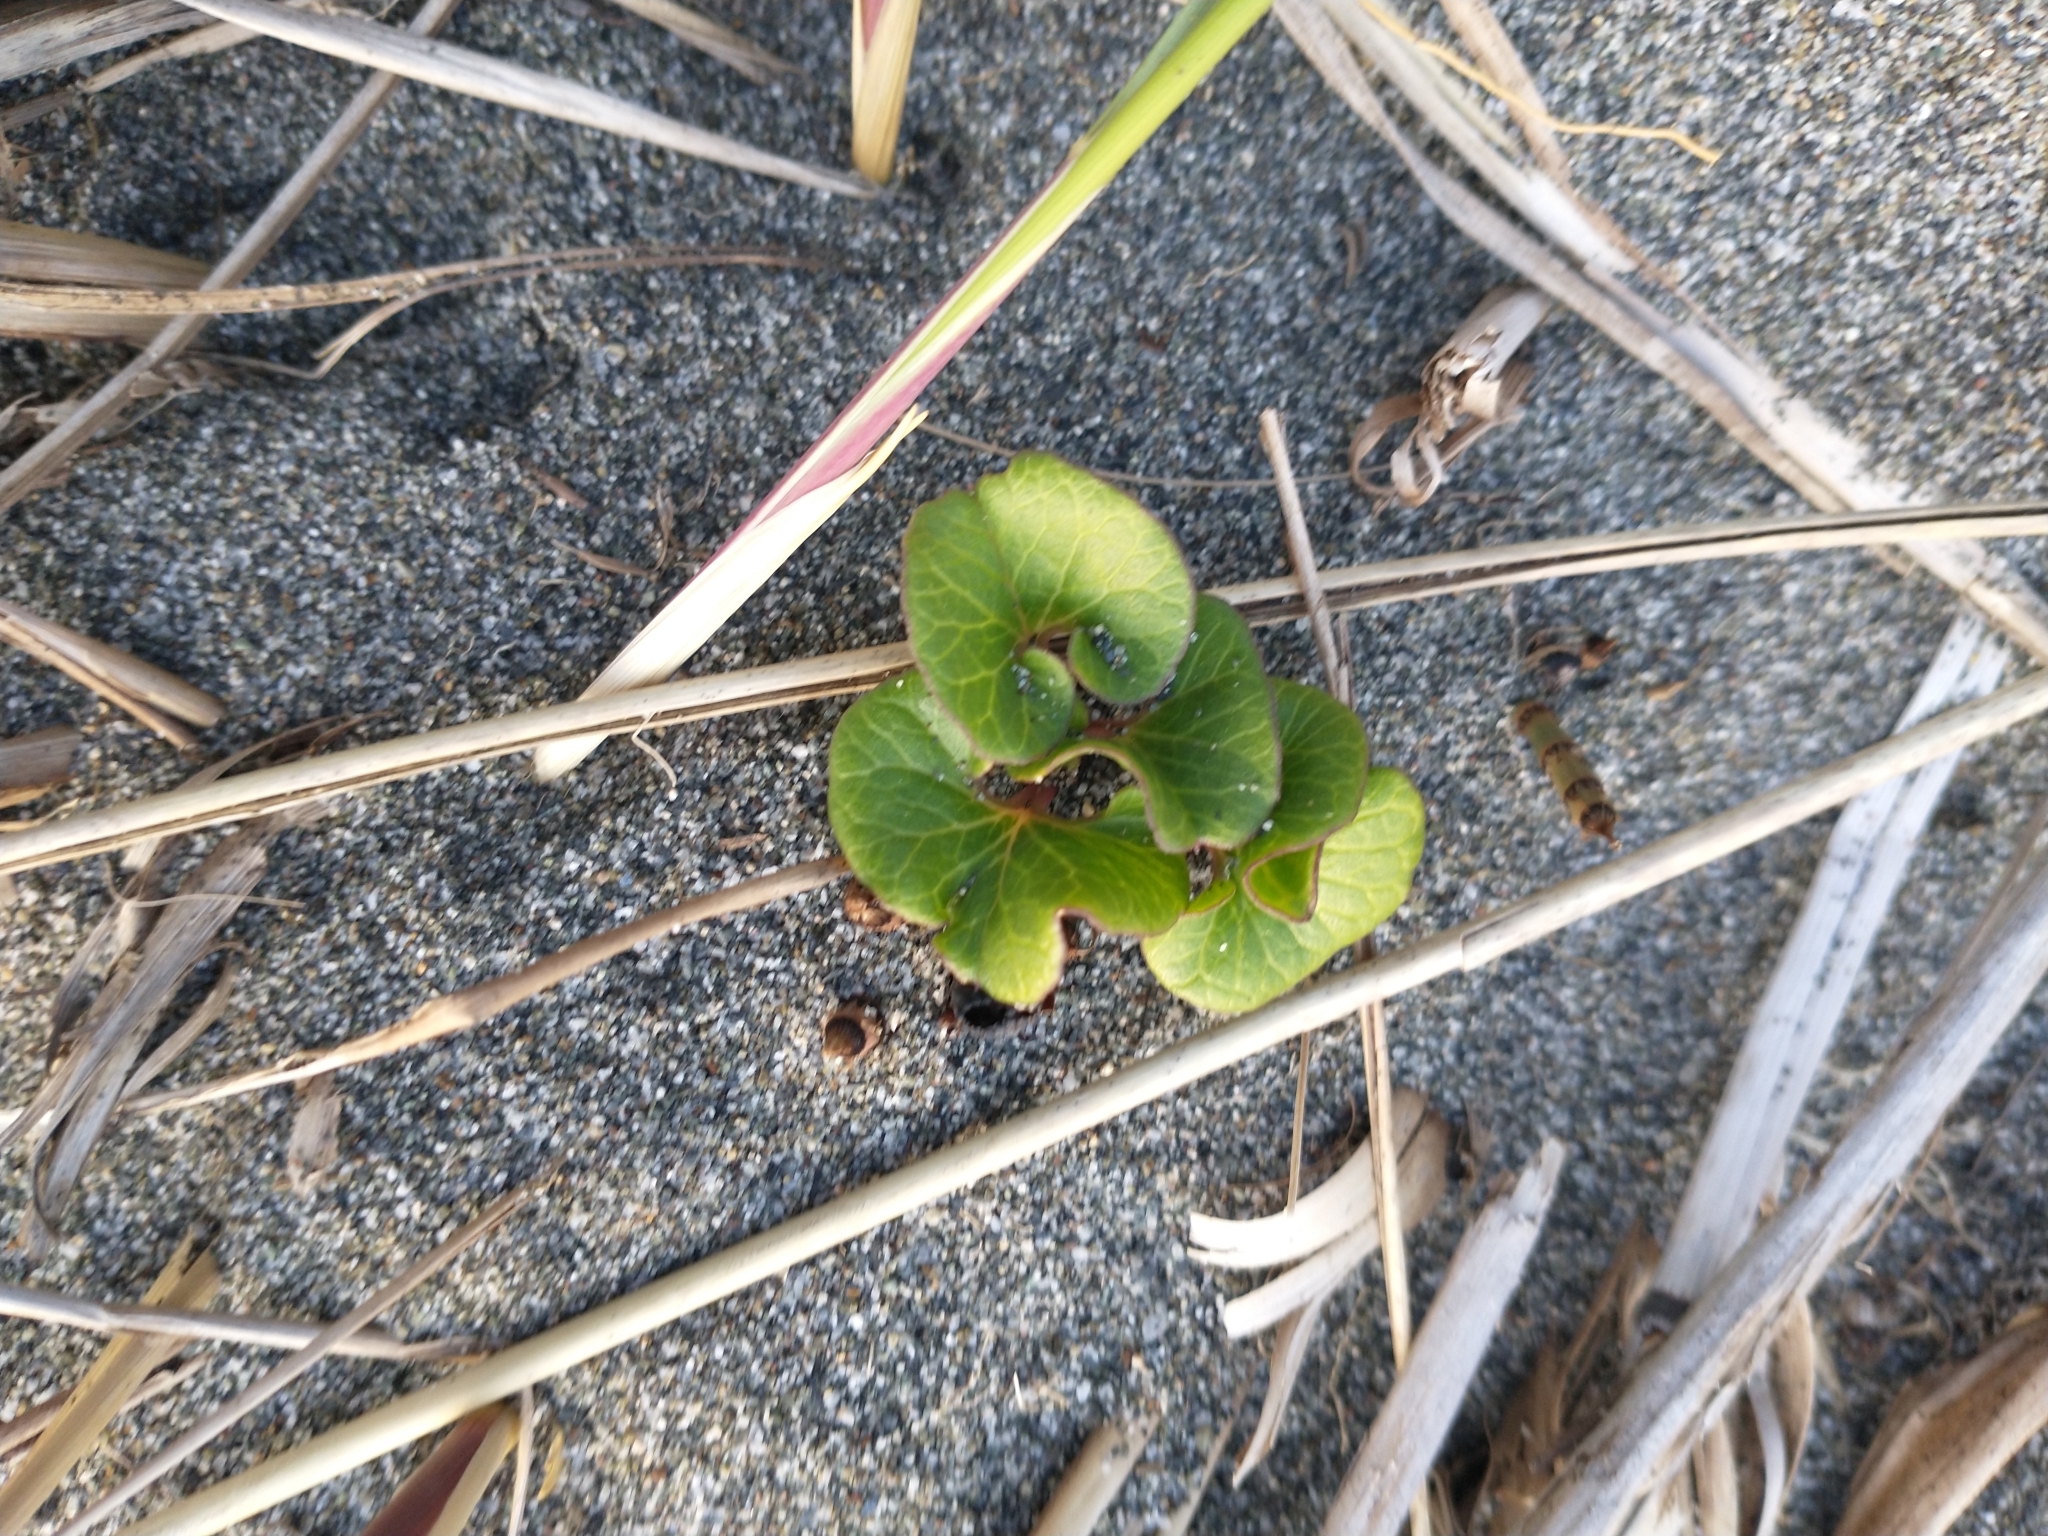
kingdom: Plantae
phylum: Tracheophyta
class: Magnoliopsida
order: Solanales
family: Convolvulaceae
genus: Calystegia
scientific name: Calystegia soldanella
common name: Sea bindweed
